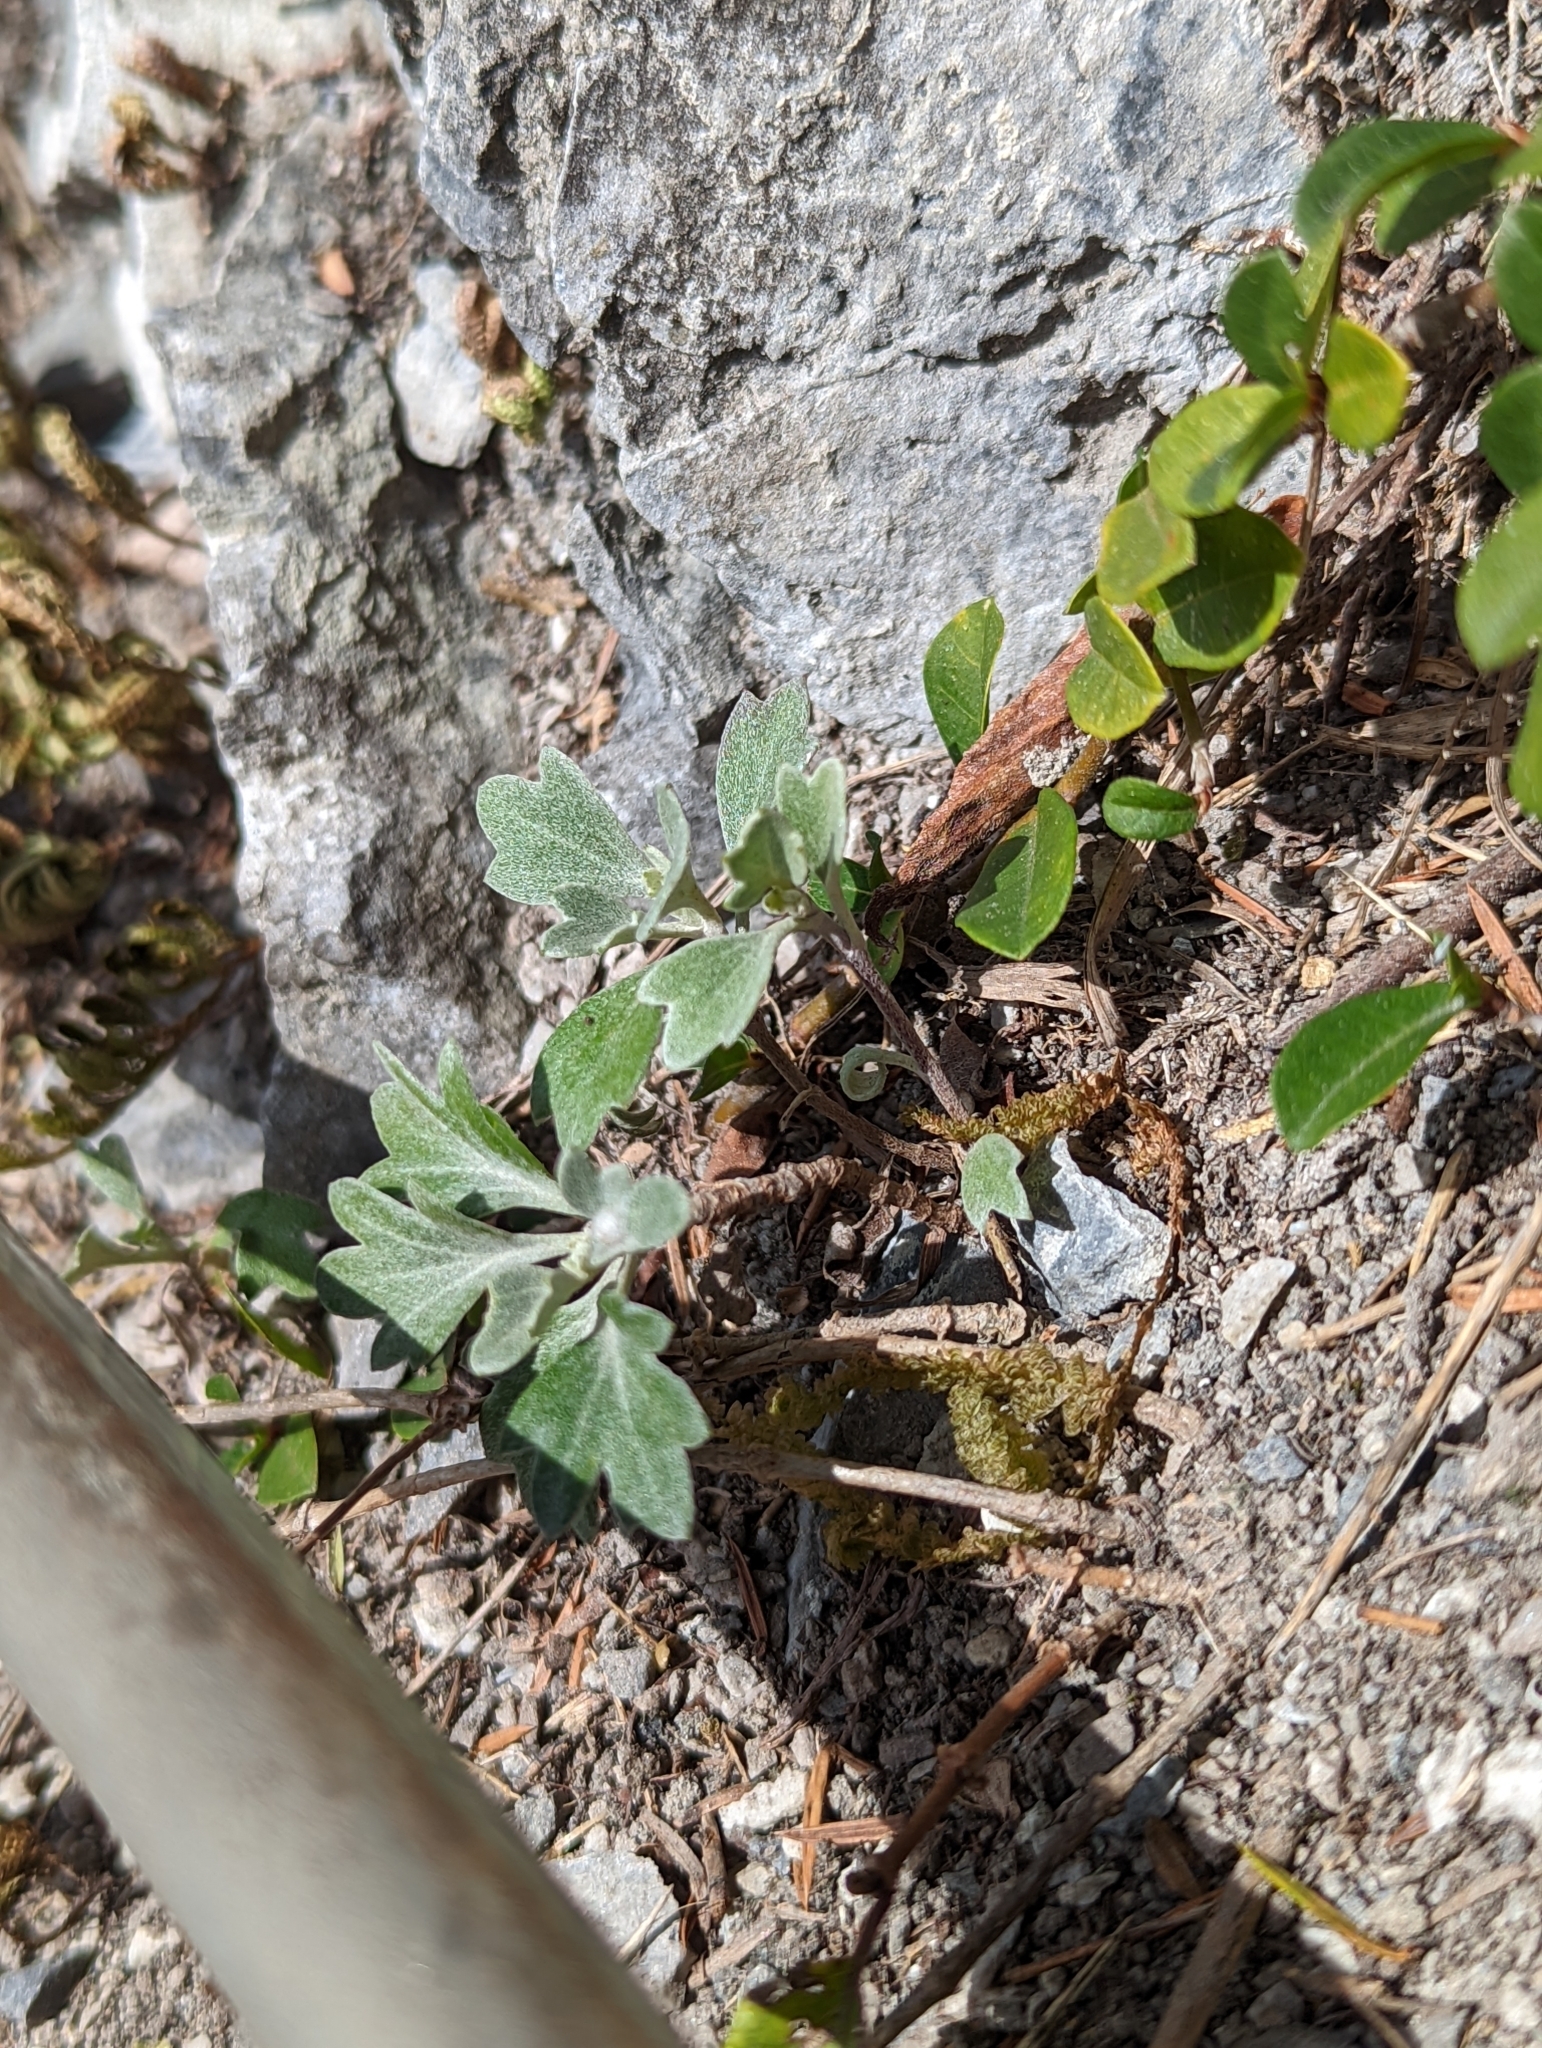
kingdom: Plantae
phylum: Tracheophyta
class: Magnoliopsida
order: Asterales
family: Asteraceae
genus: Chrysanthemum
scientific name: Chrysanthemum morii
